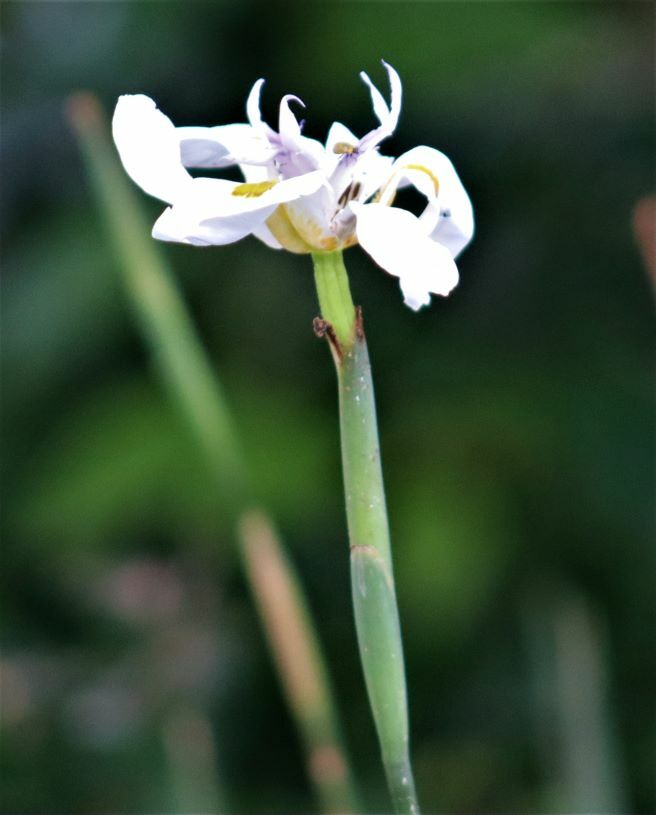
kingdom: Plantae
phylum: Tracheophyta
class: Liliopsida
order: Asparagales
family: Iridaceae
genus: Dietes
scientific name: Dietes grandiflora
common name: Wild iris
